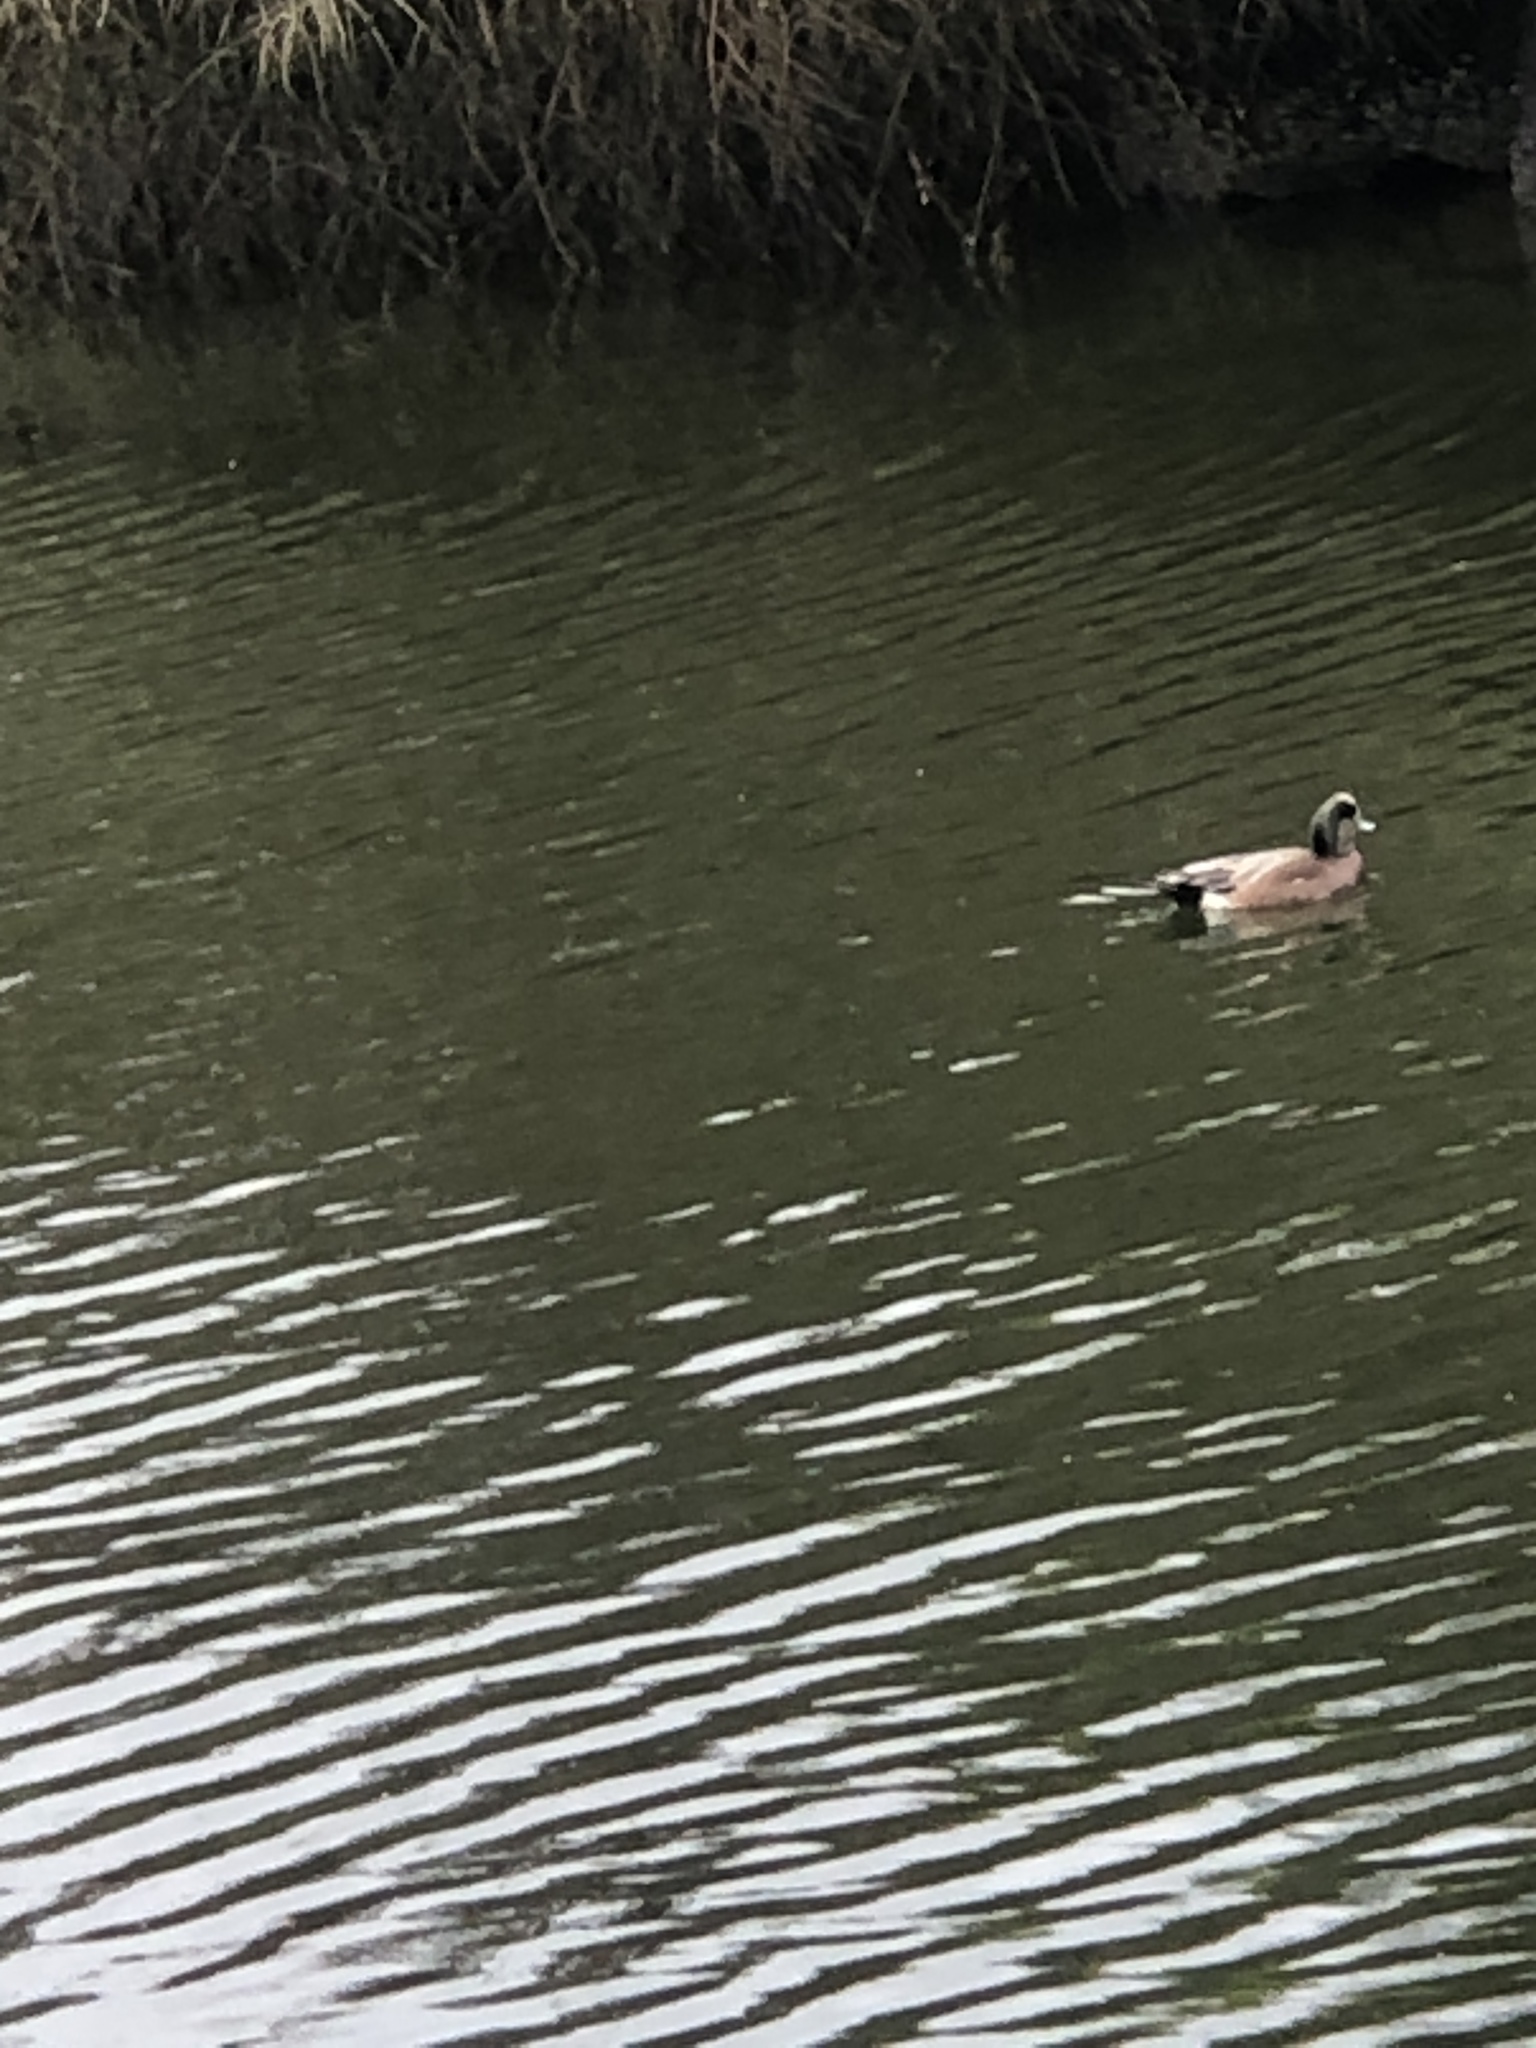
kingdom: Animalia
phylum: Chordata
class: Aves
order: Anseriformes
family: Anatidae
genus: Mareca
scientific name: Mareca americana
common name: American wigeon
